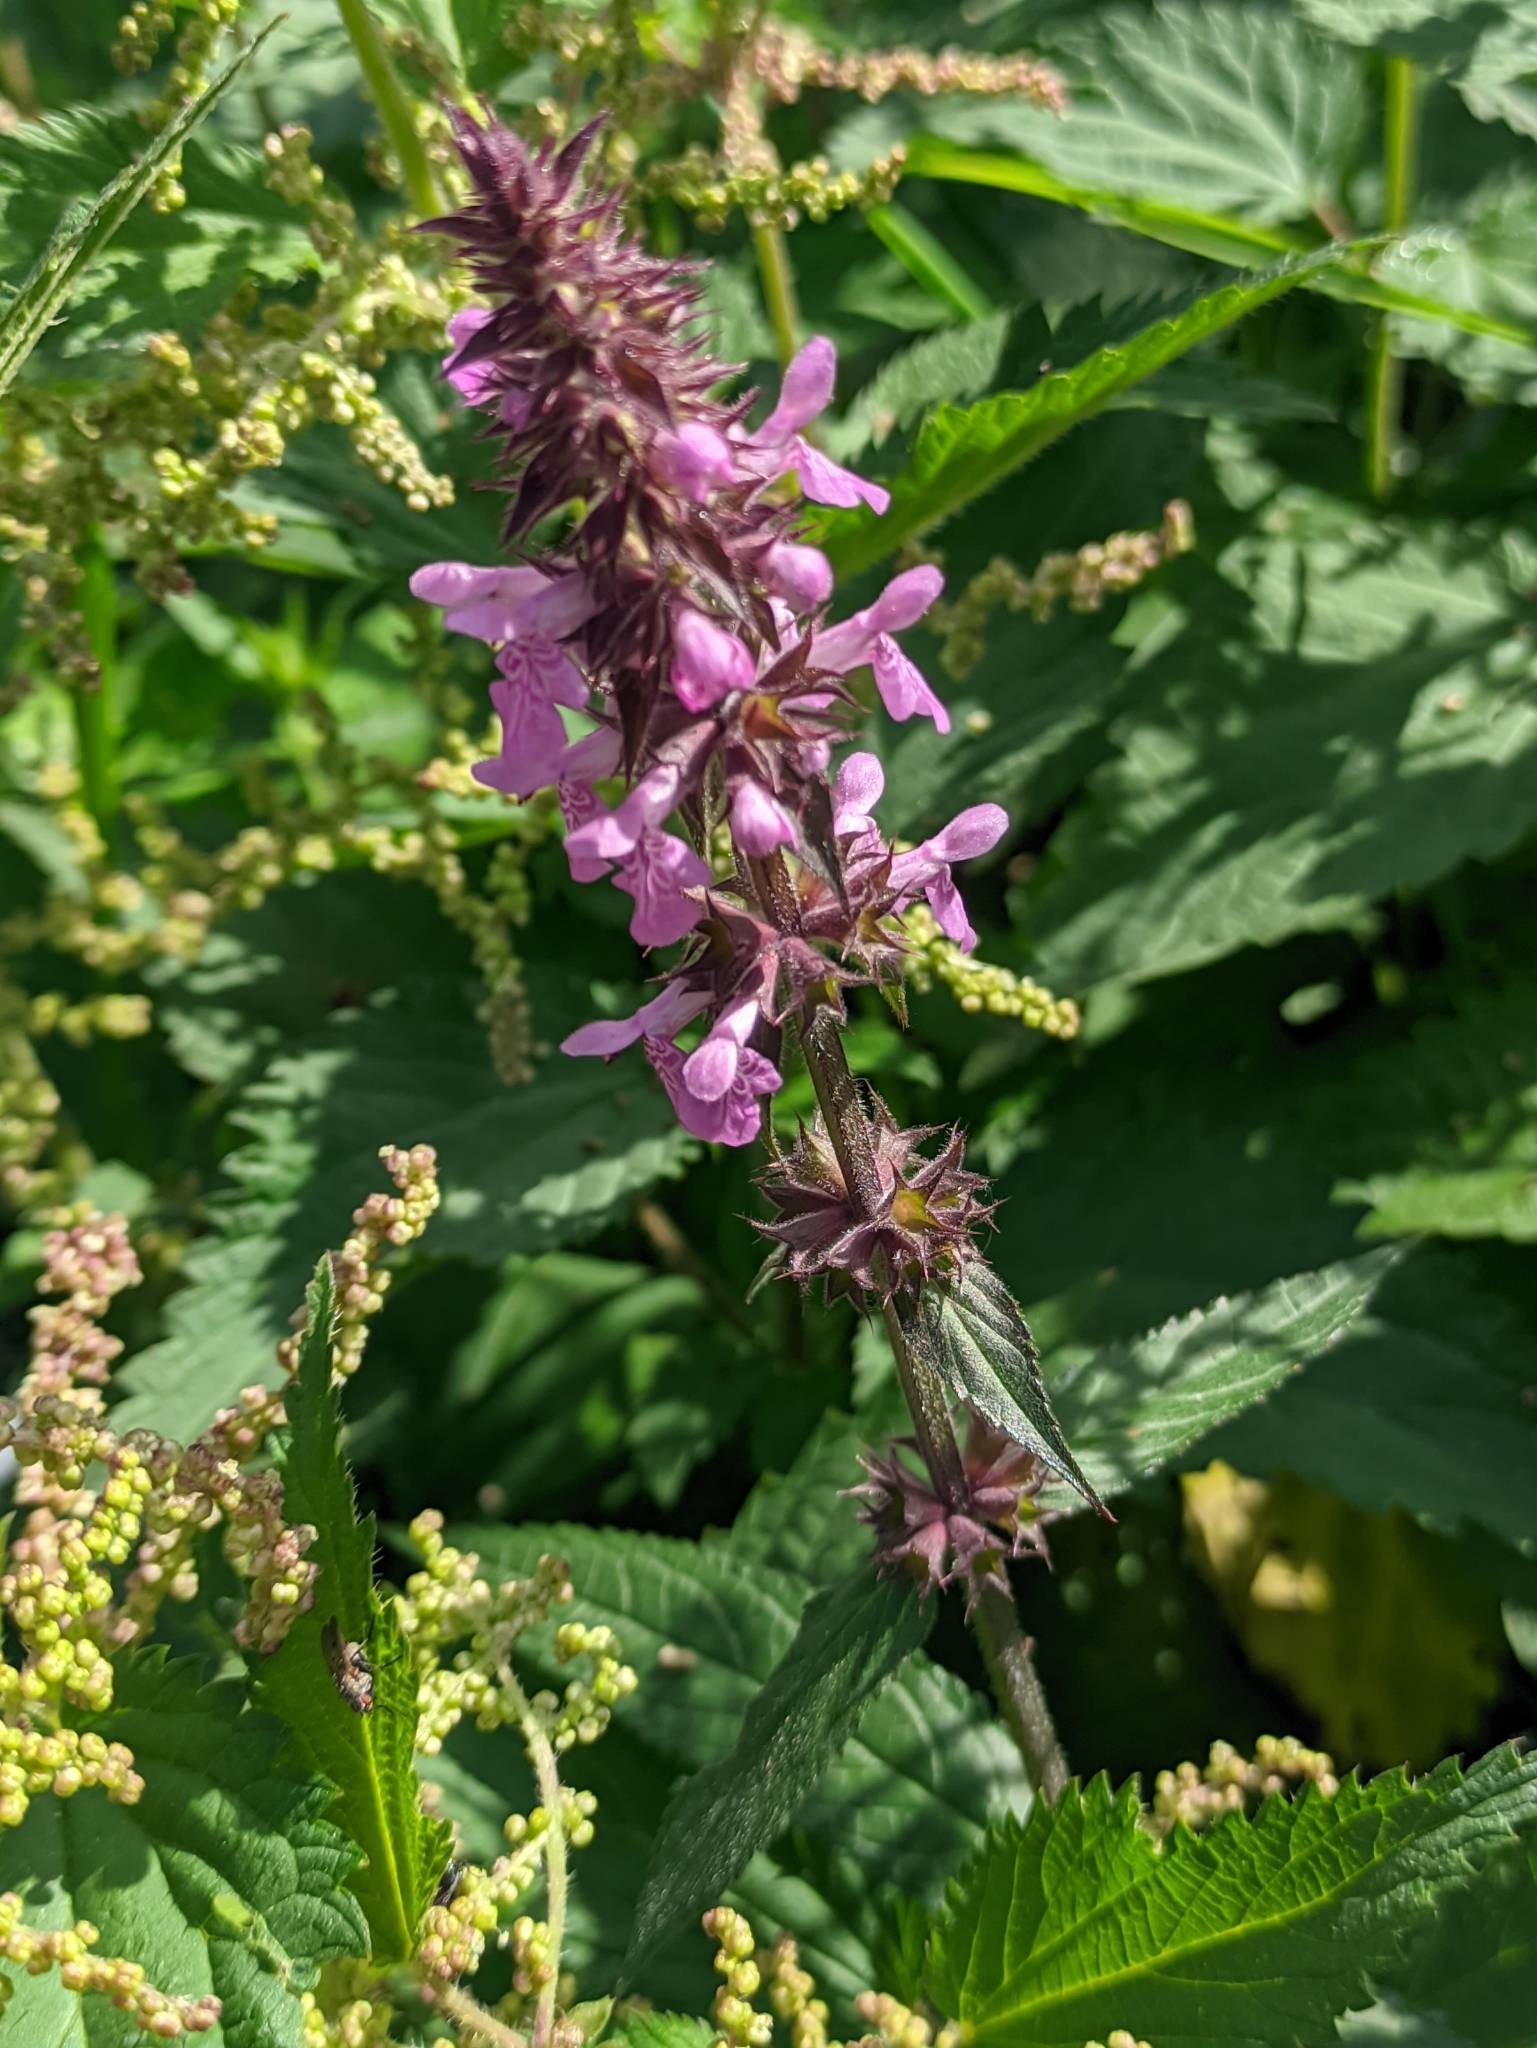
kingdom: Plantae
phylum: Tracheophyta
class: Magnoliopsida
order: Lamiales
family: Lamiaceae
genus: Stachys
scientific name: Stachys palustris
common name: Marsh woundwort
